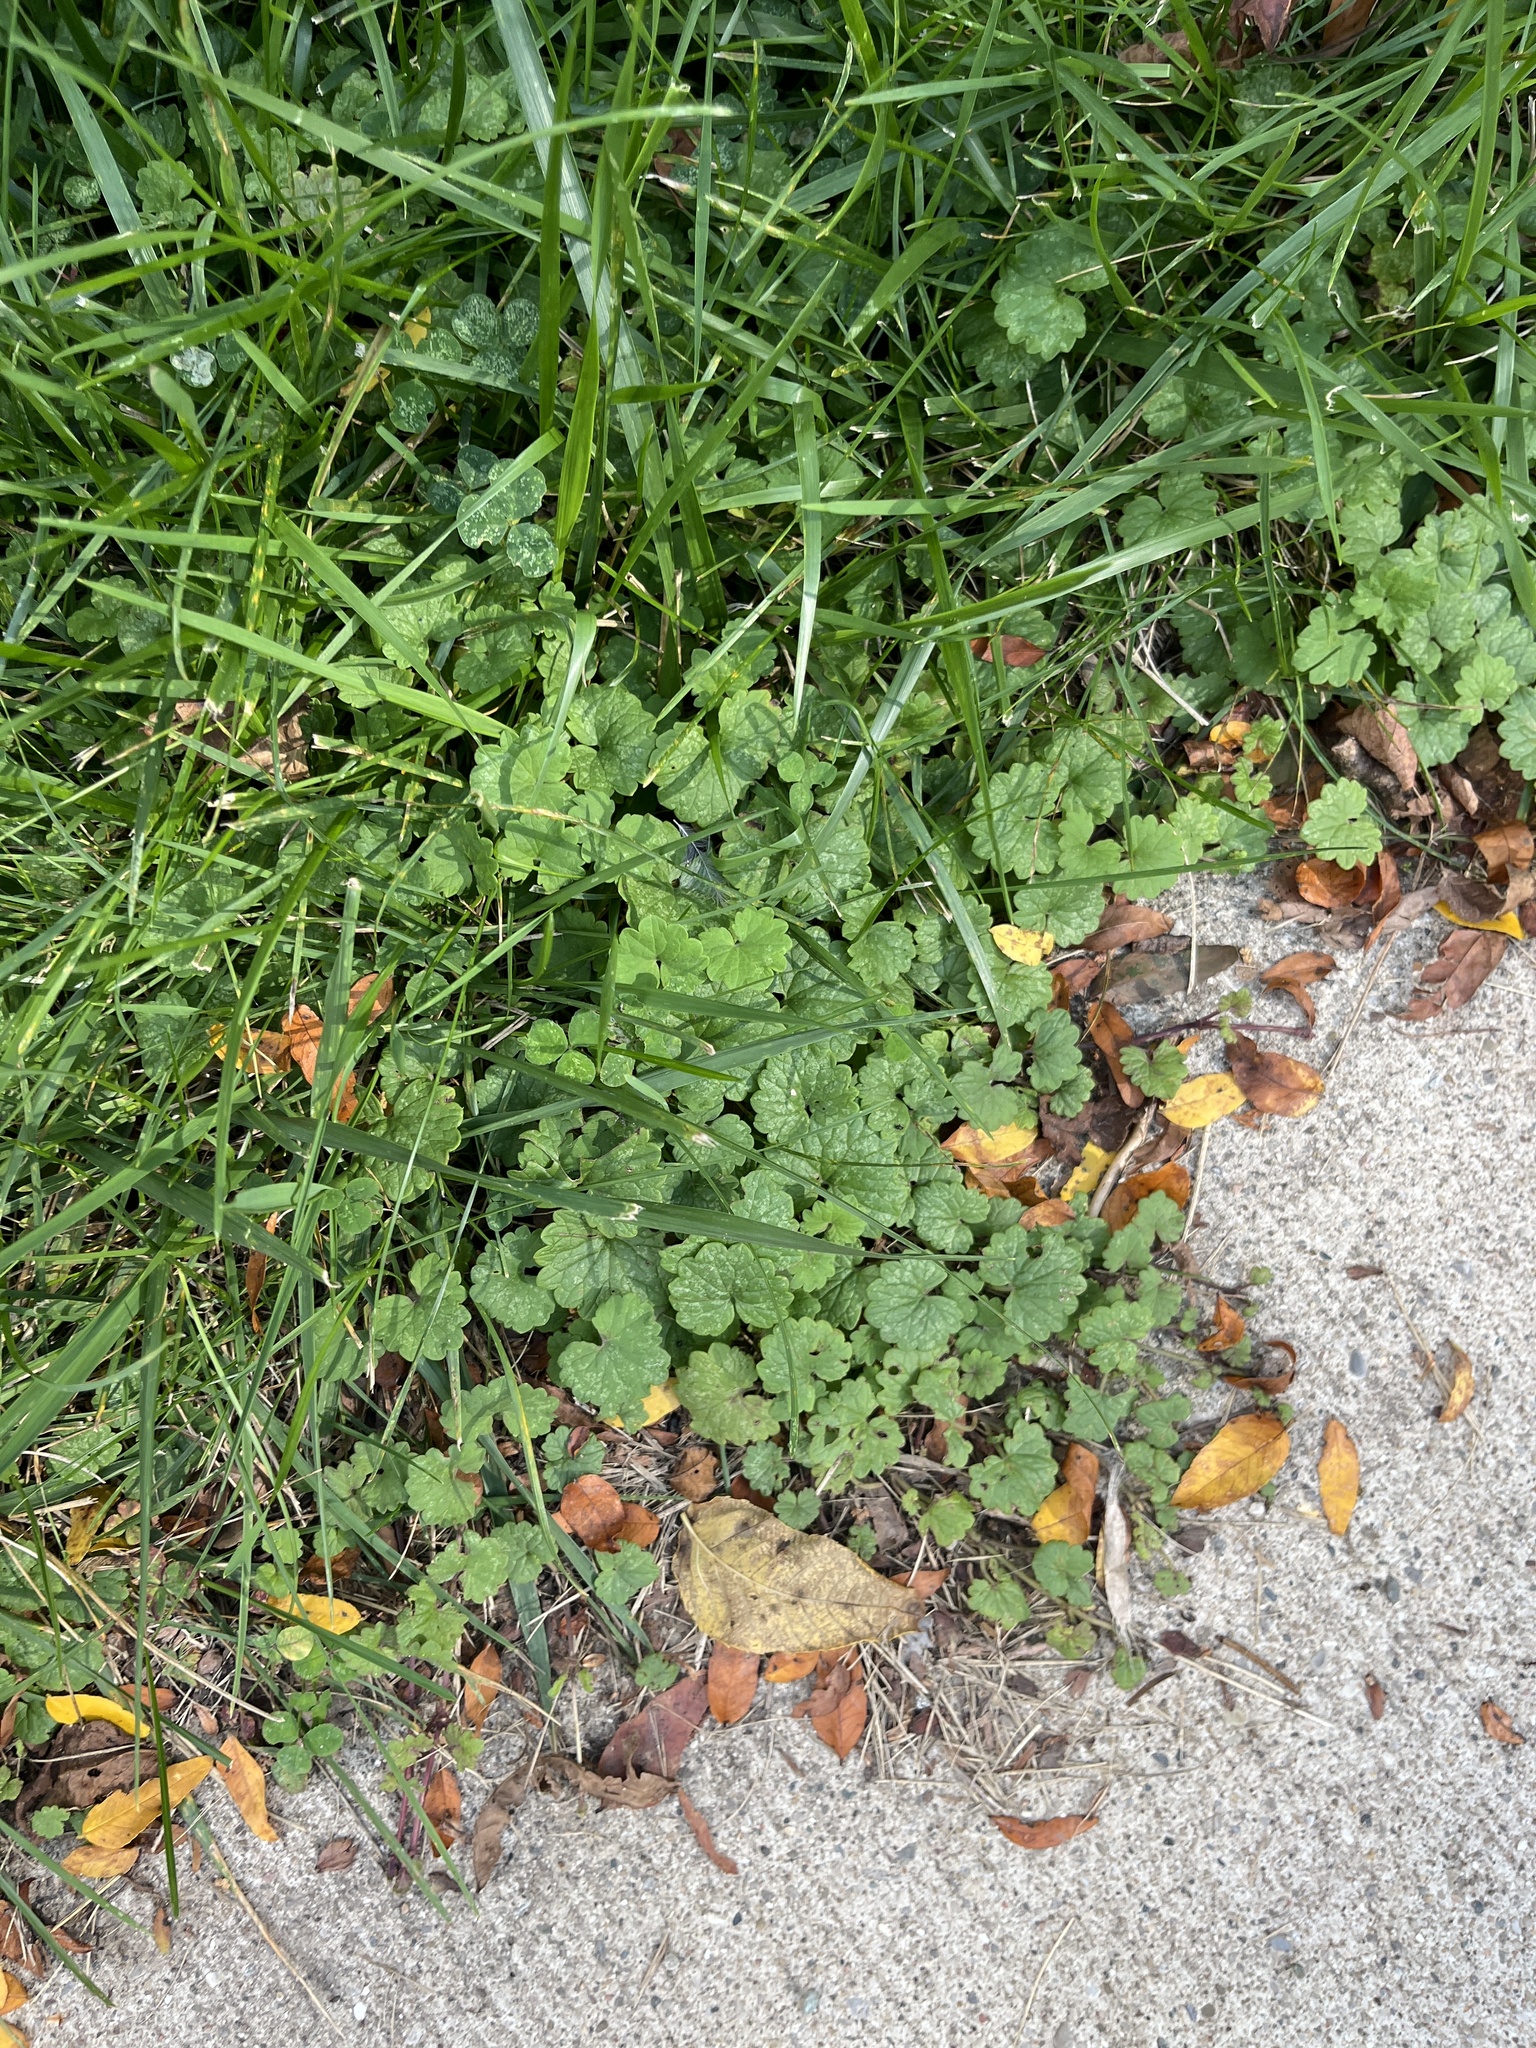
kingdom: Plantae
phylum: Tracheophyta
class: Magnoliopsida
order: Lamiales
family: Lamiaceae
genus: Glechoma
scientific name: Glechoma hederacea
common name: Ground ivy
